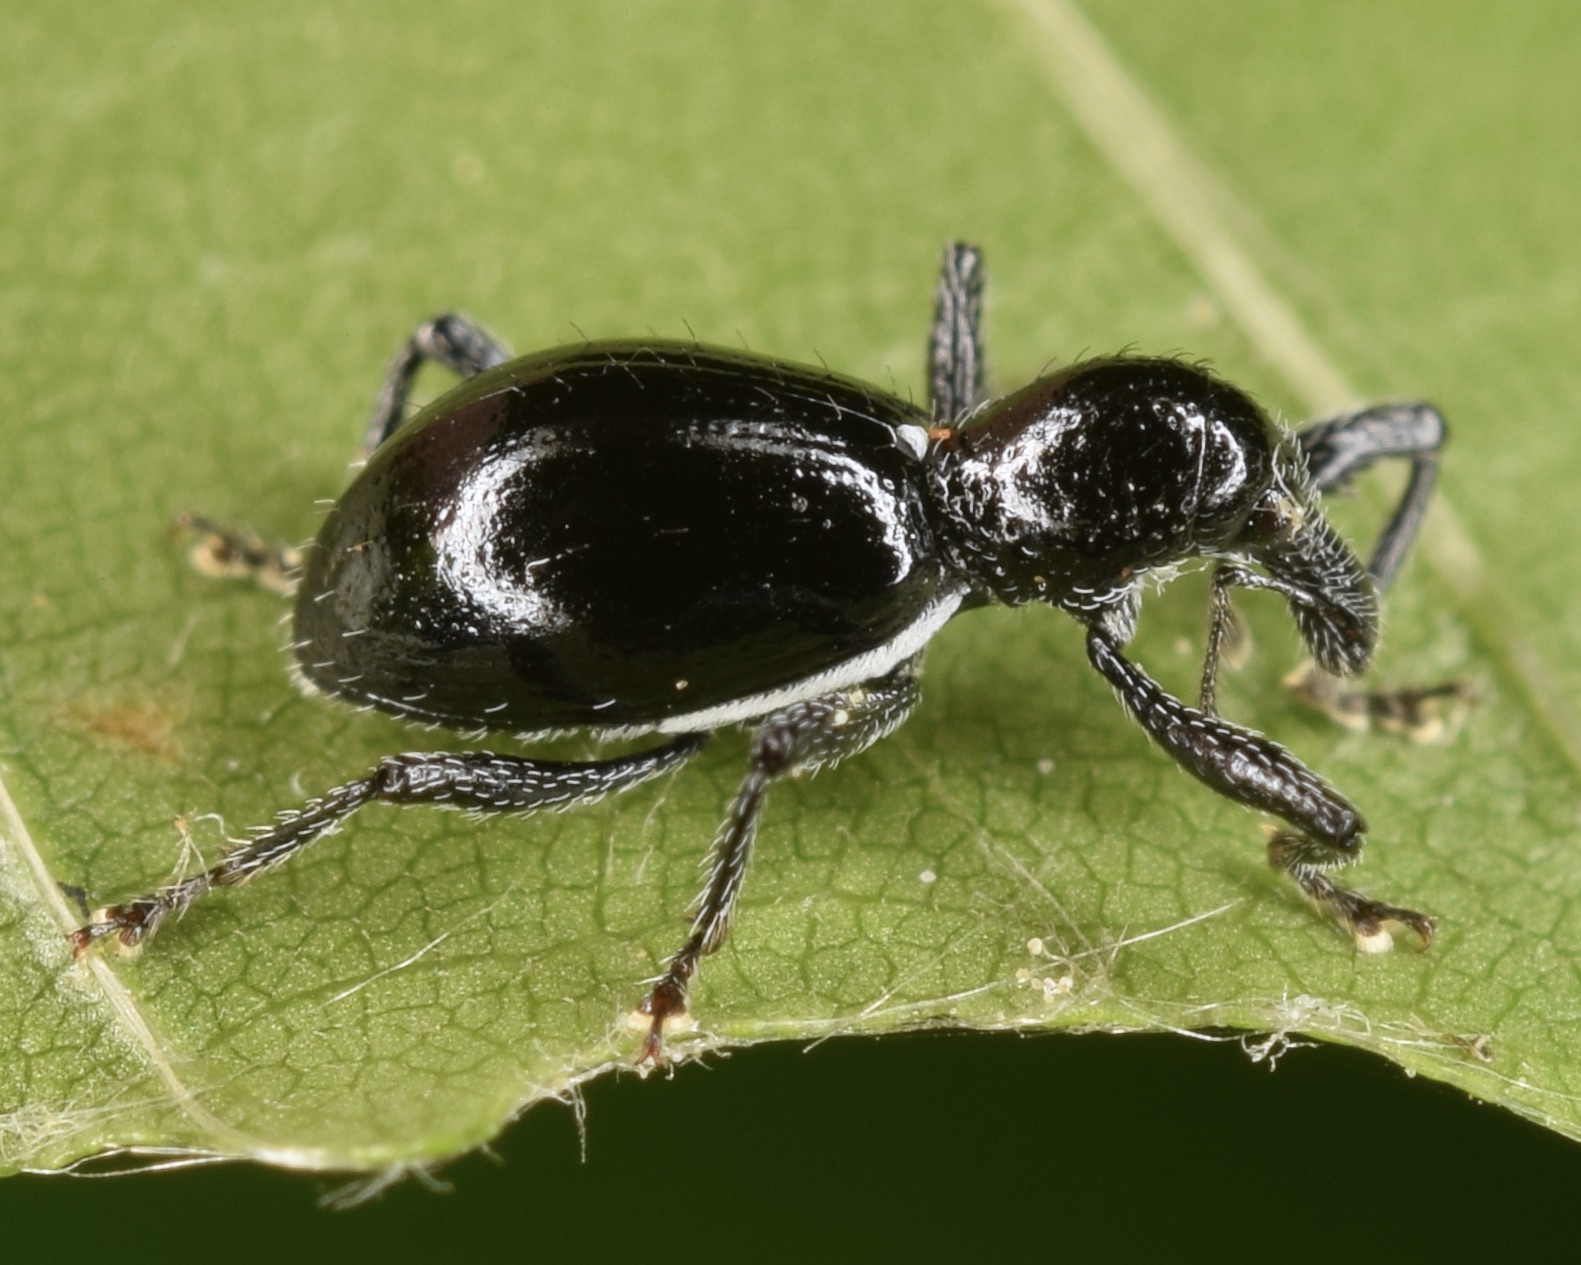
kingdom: Animalia
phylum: Arthropoda
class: Insecta
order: Coleoptera
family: Curculionidae
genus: Otidocephalus
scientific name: Otidocephalus chevrolatii
